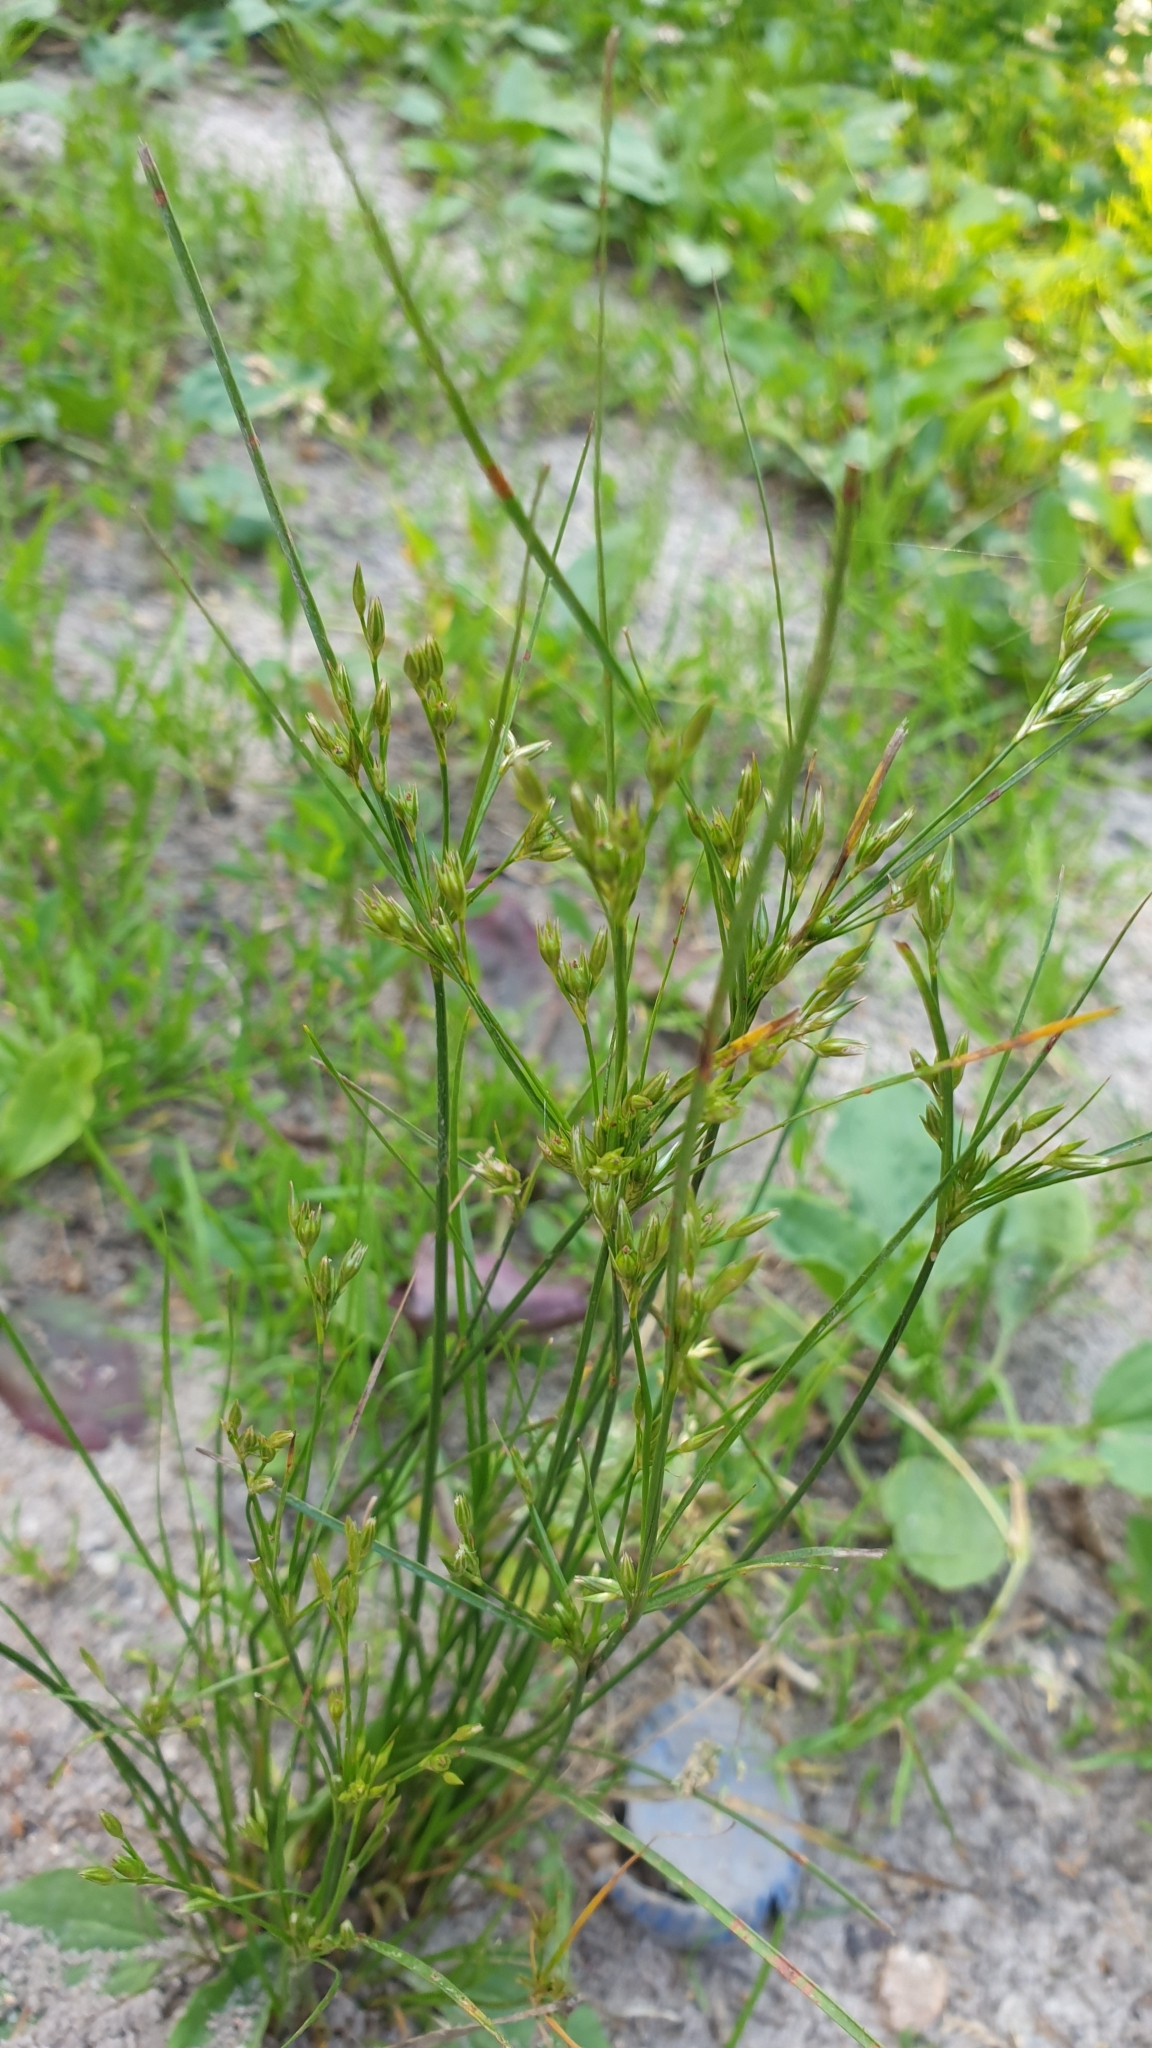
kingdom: Plantae
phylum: Tracheophyta
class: Liliopsida
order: Poales
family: Juncaceae
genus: Juncus
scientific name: Juncus tenuis
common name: Slender rush
